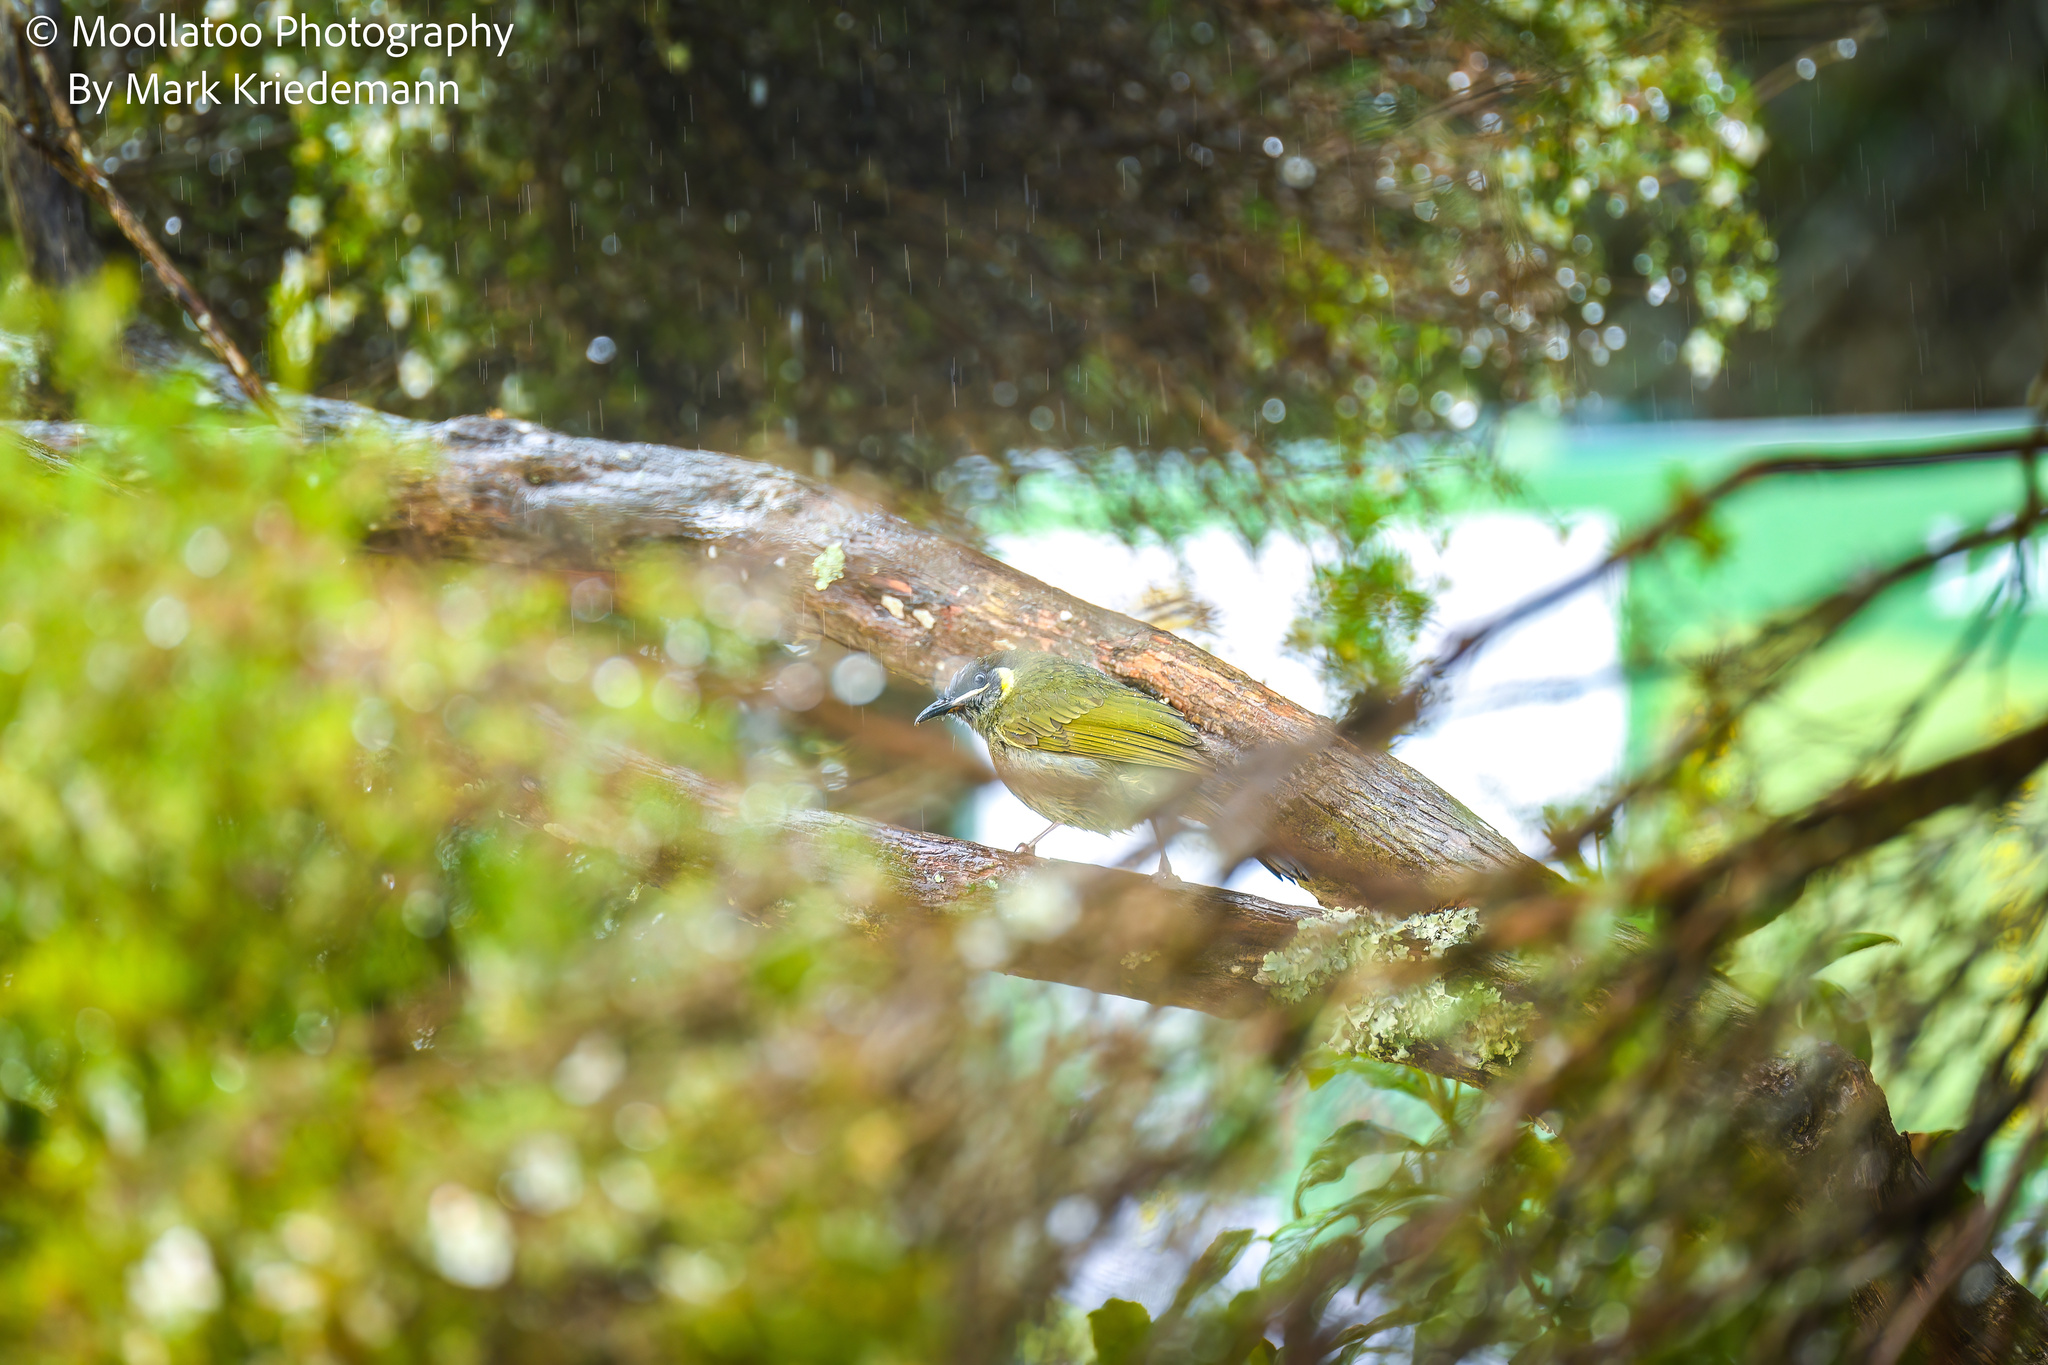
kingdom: Animalia
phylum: Chordata
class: Aves
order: Passeriformes
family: Meliphagidae
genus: Meliphaga
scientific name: Meliphaga lewinii
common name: Lewin's honeyeater
